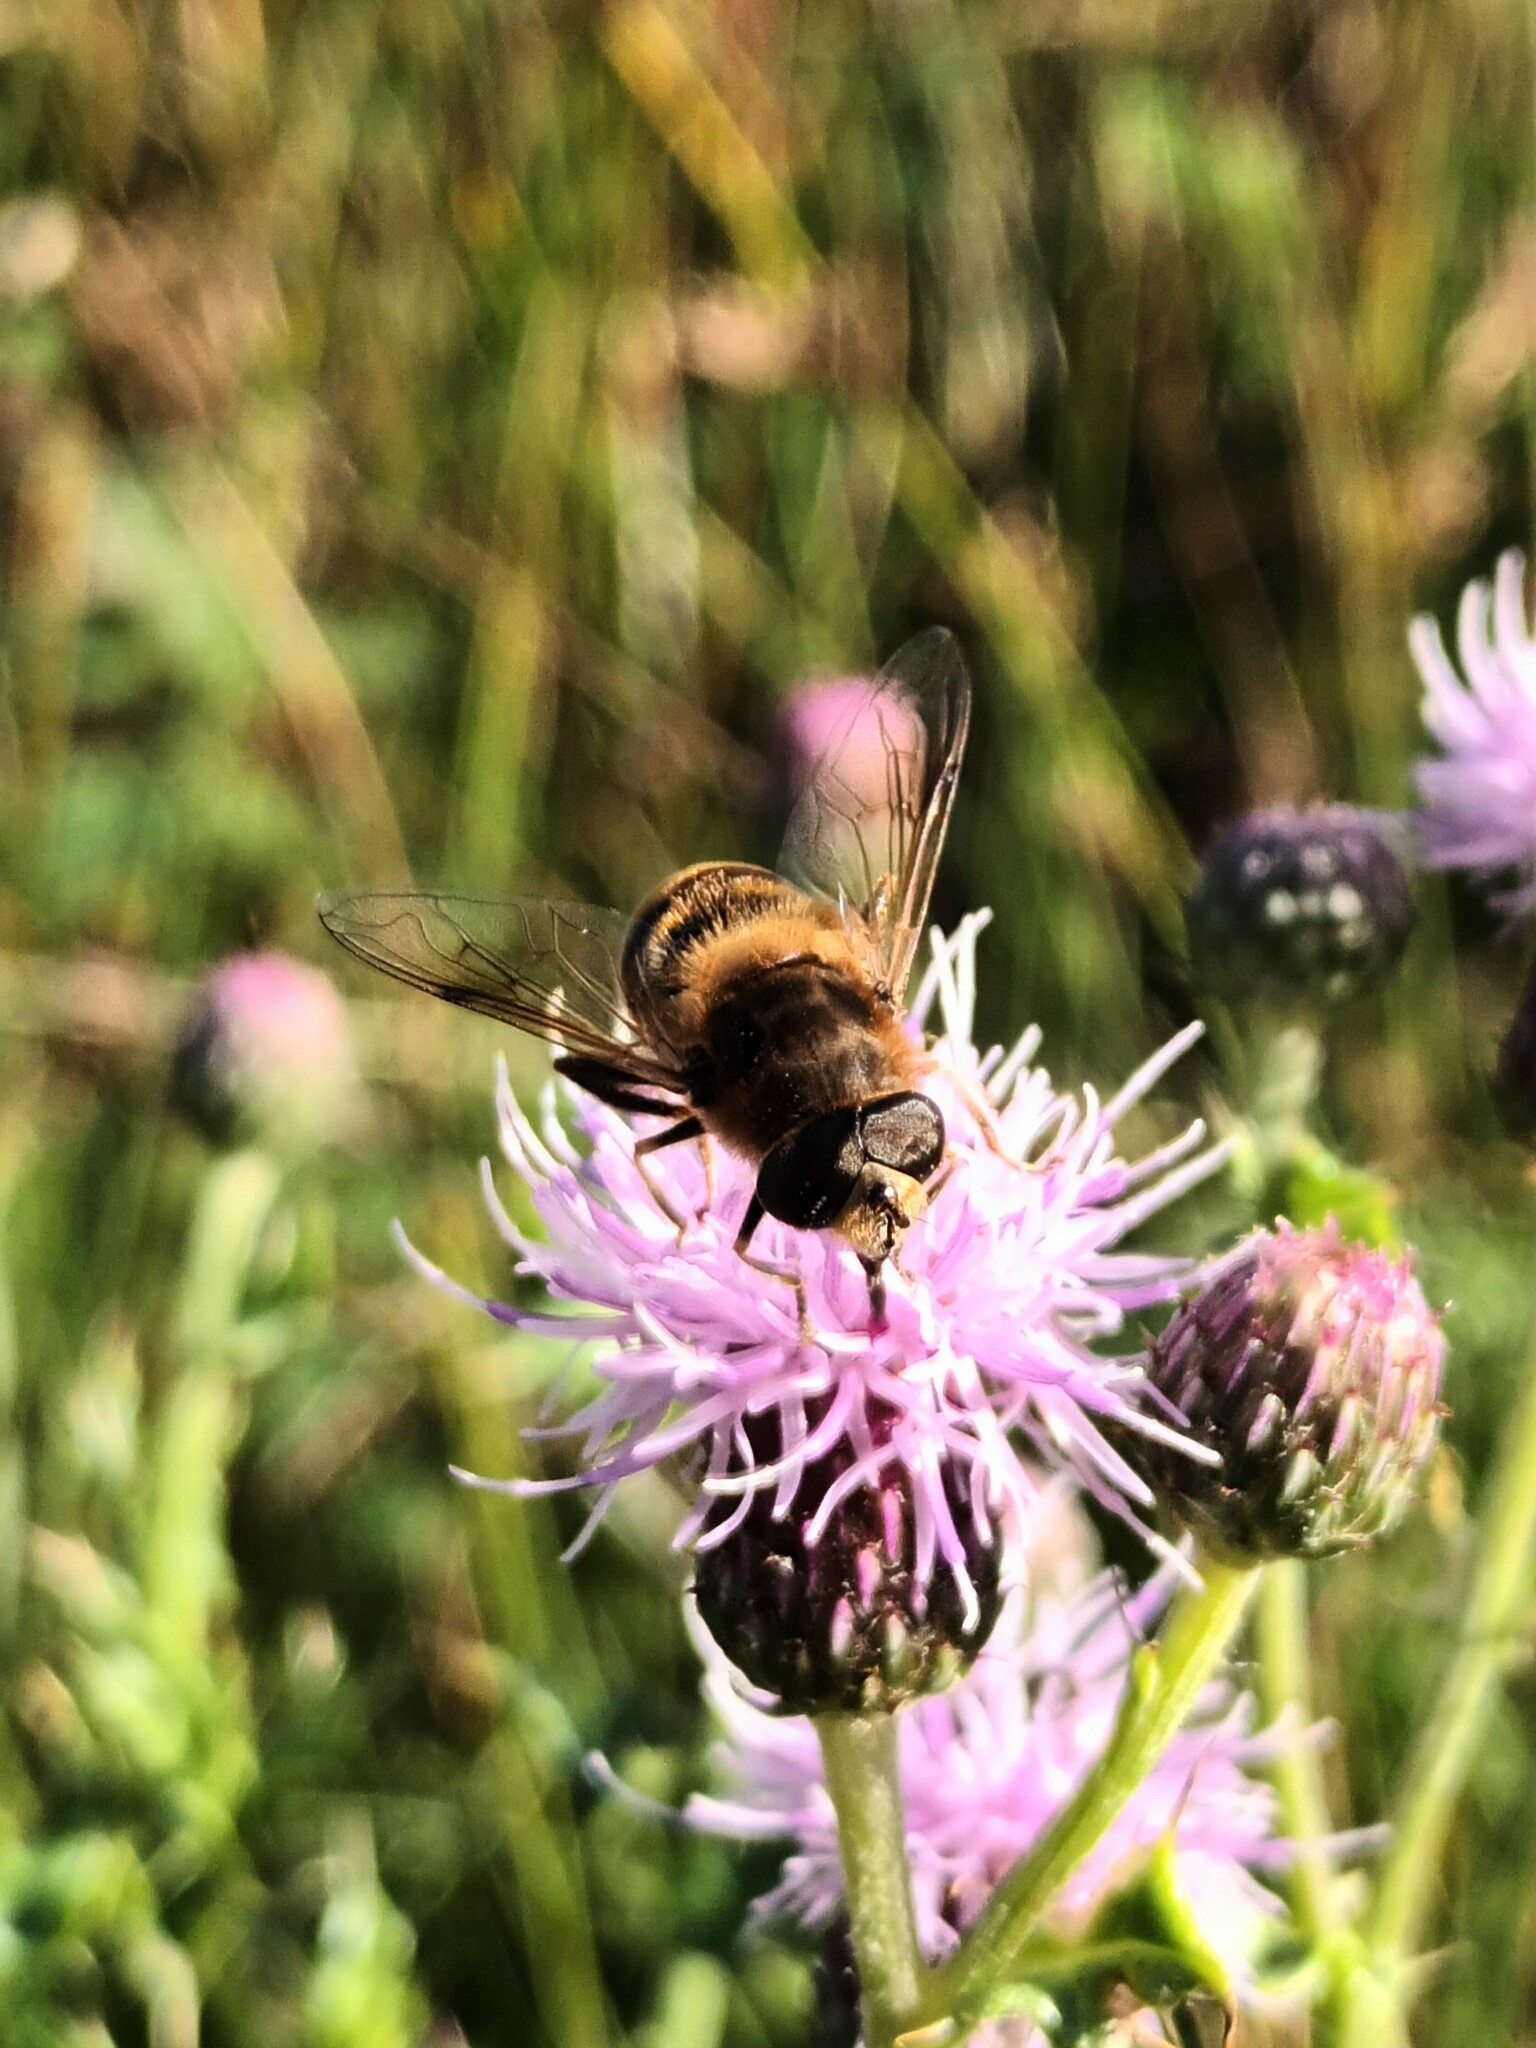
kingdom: Animalia
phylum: Arthropoda
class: Insecta
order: Diptera
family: Syrphidae
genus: Eristalis
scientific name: Eristalis tenax
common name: Drone fly
